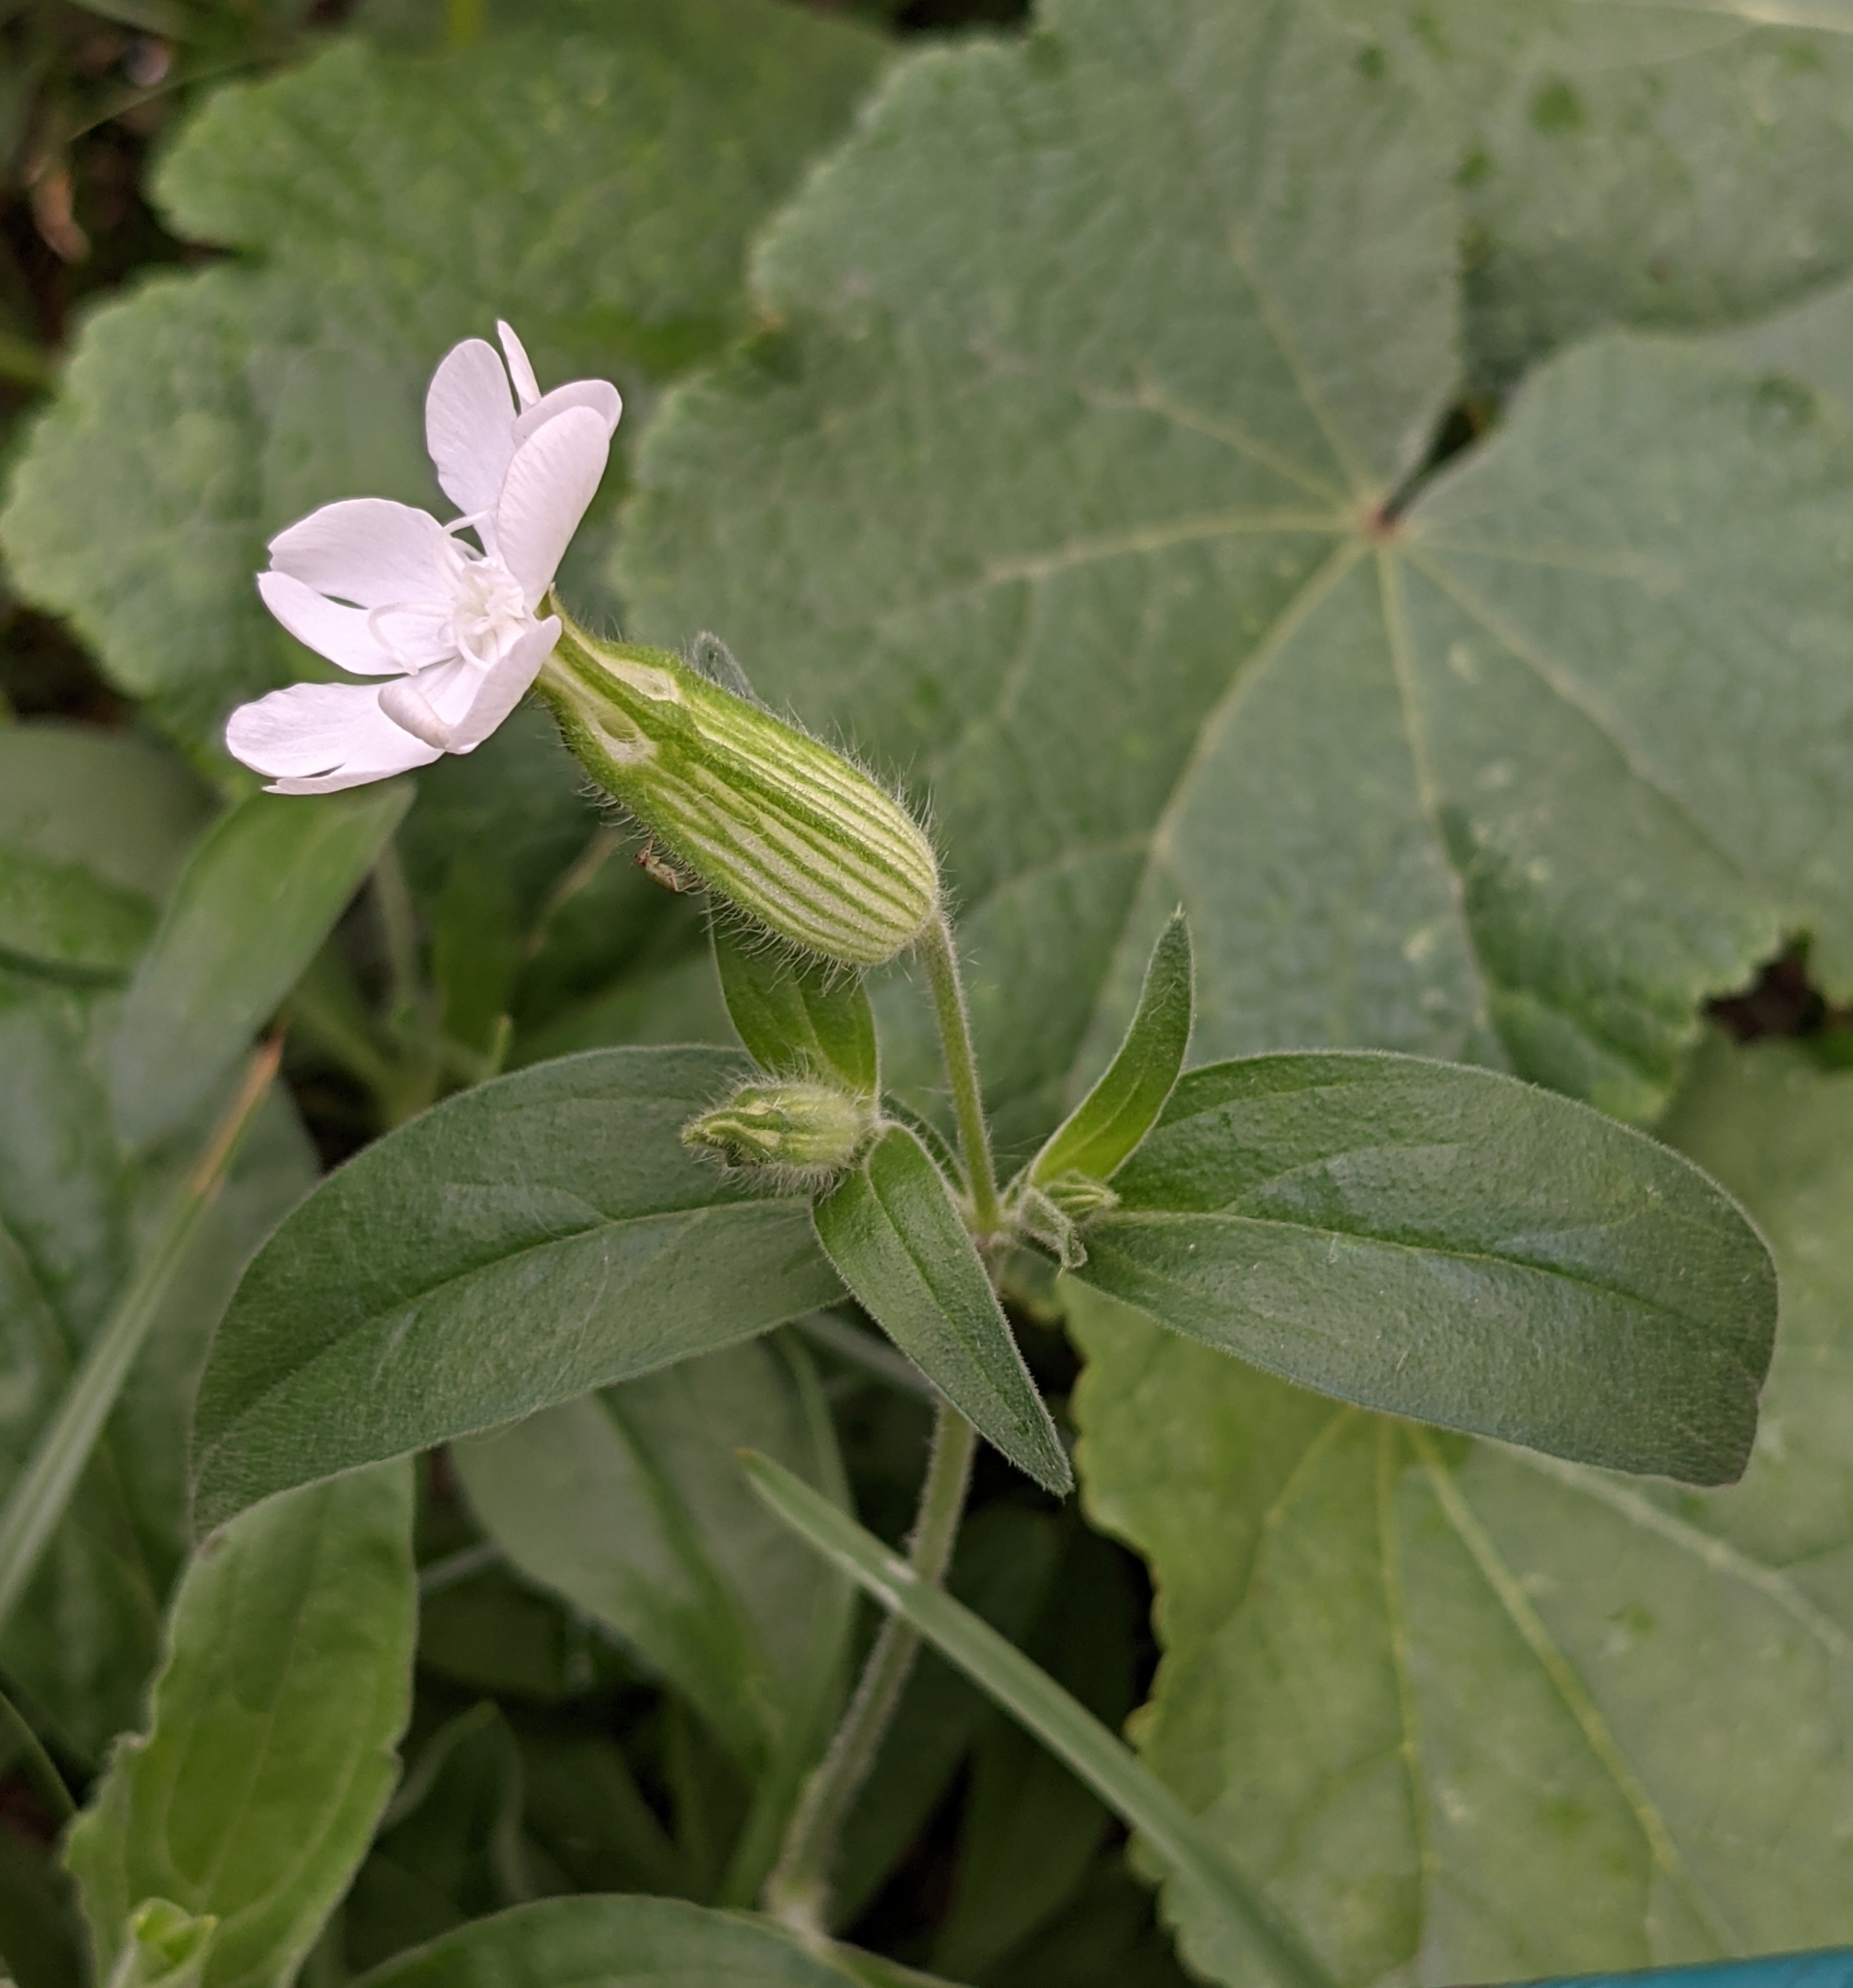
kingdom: Plantae
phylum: Tracheophyta
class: Magnoliopsida
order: Caryophyllales
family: Caryophyllaceae
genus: Silene
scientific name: Silene latifolia
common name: White campion
